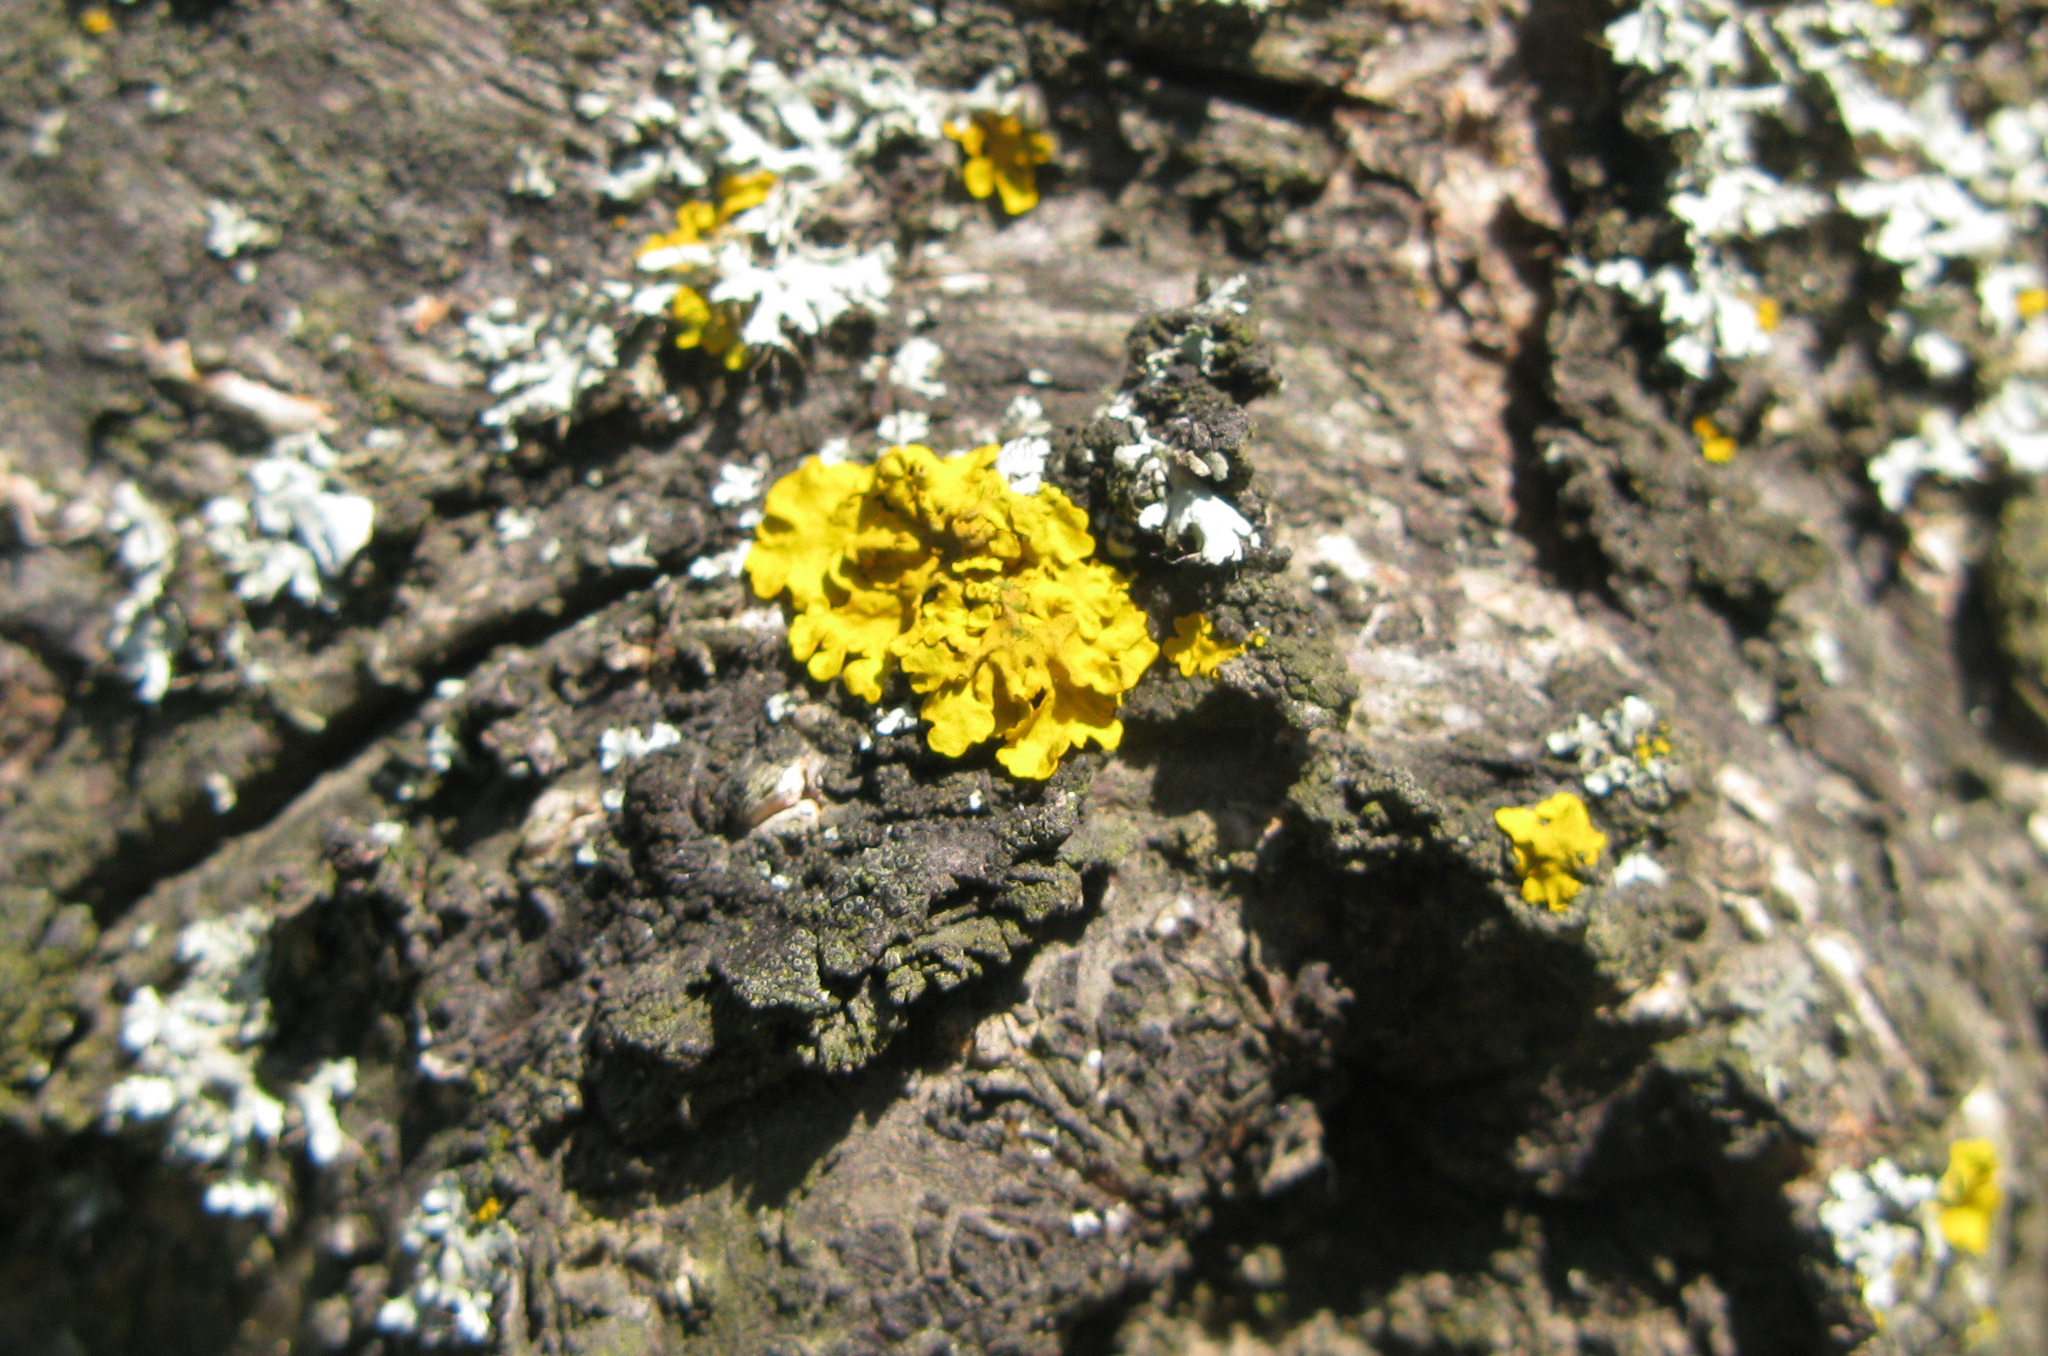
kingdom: Fungi
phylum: Ascomycota
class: Lecanoromycetes
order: Teloschistales
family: Teloschistaceae
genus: Xanthoria
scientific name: Xanthoria parietina
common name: Common orange lichen
